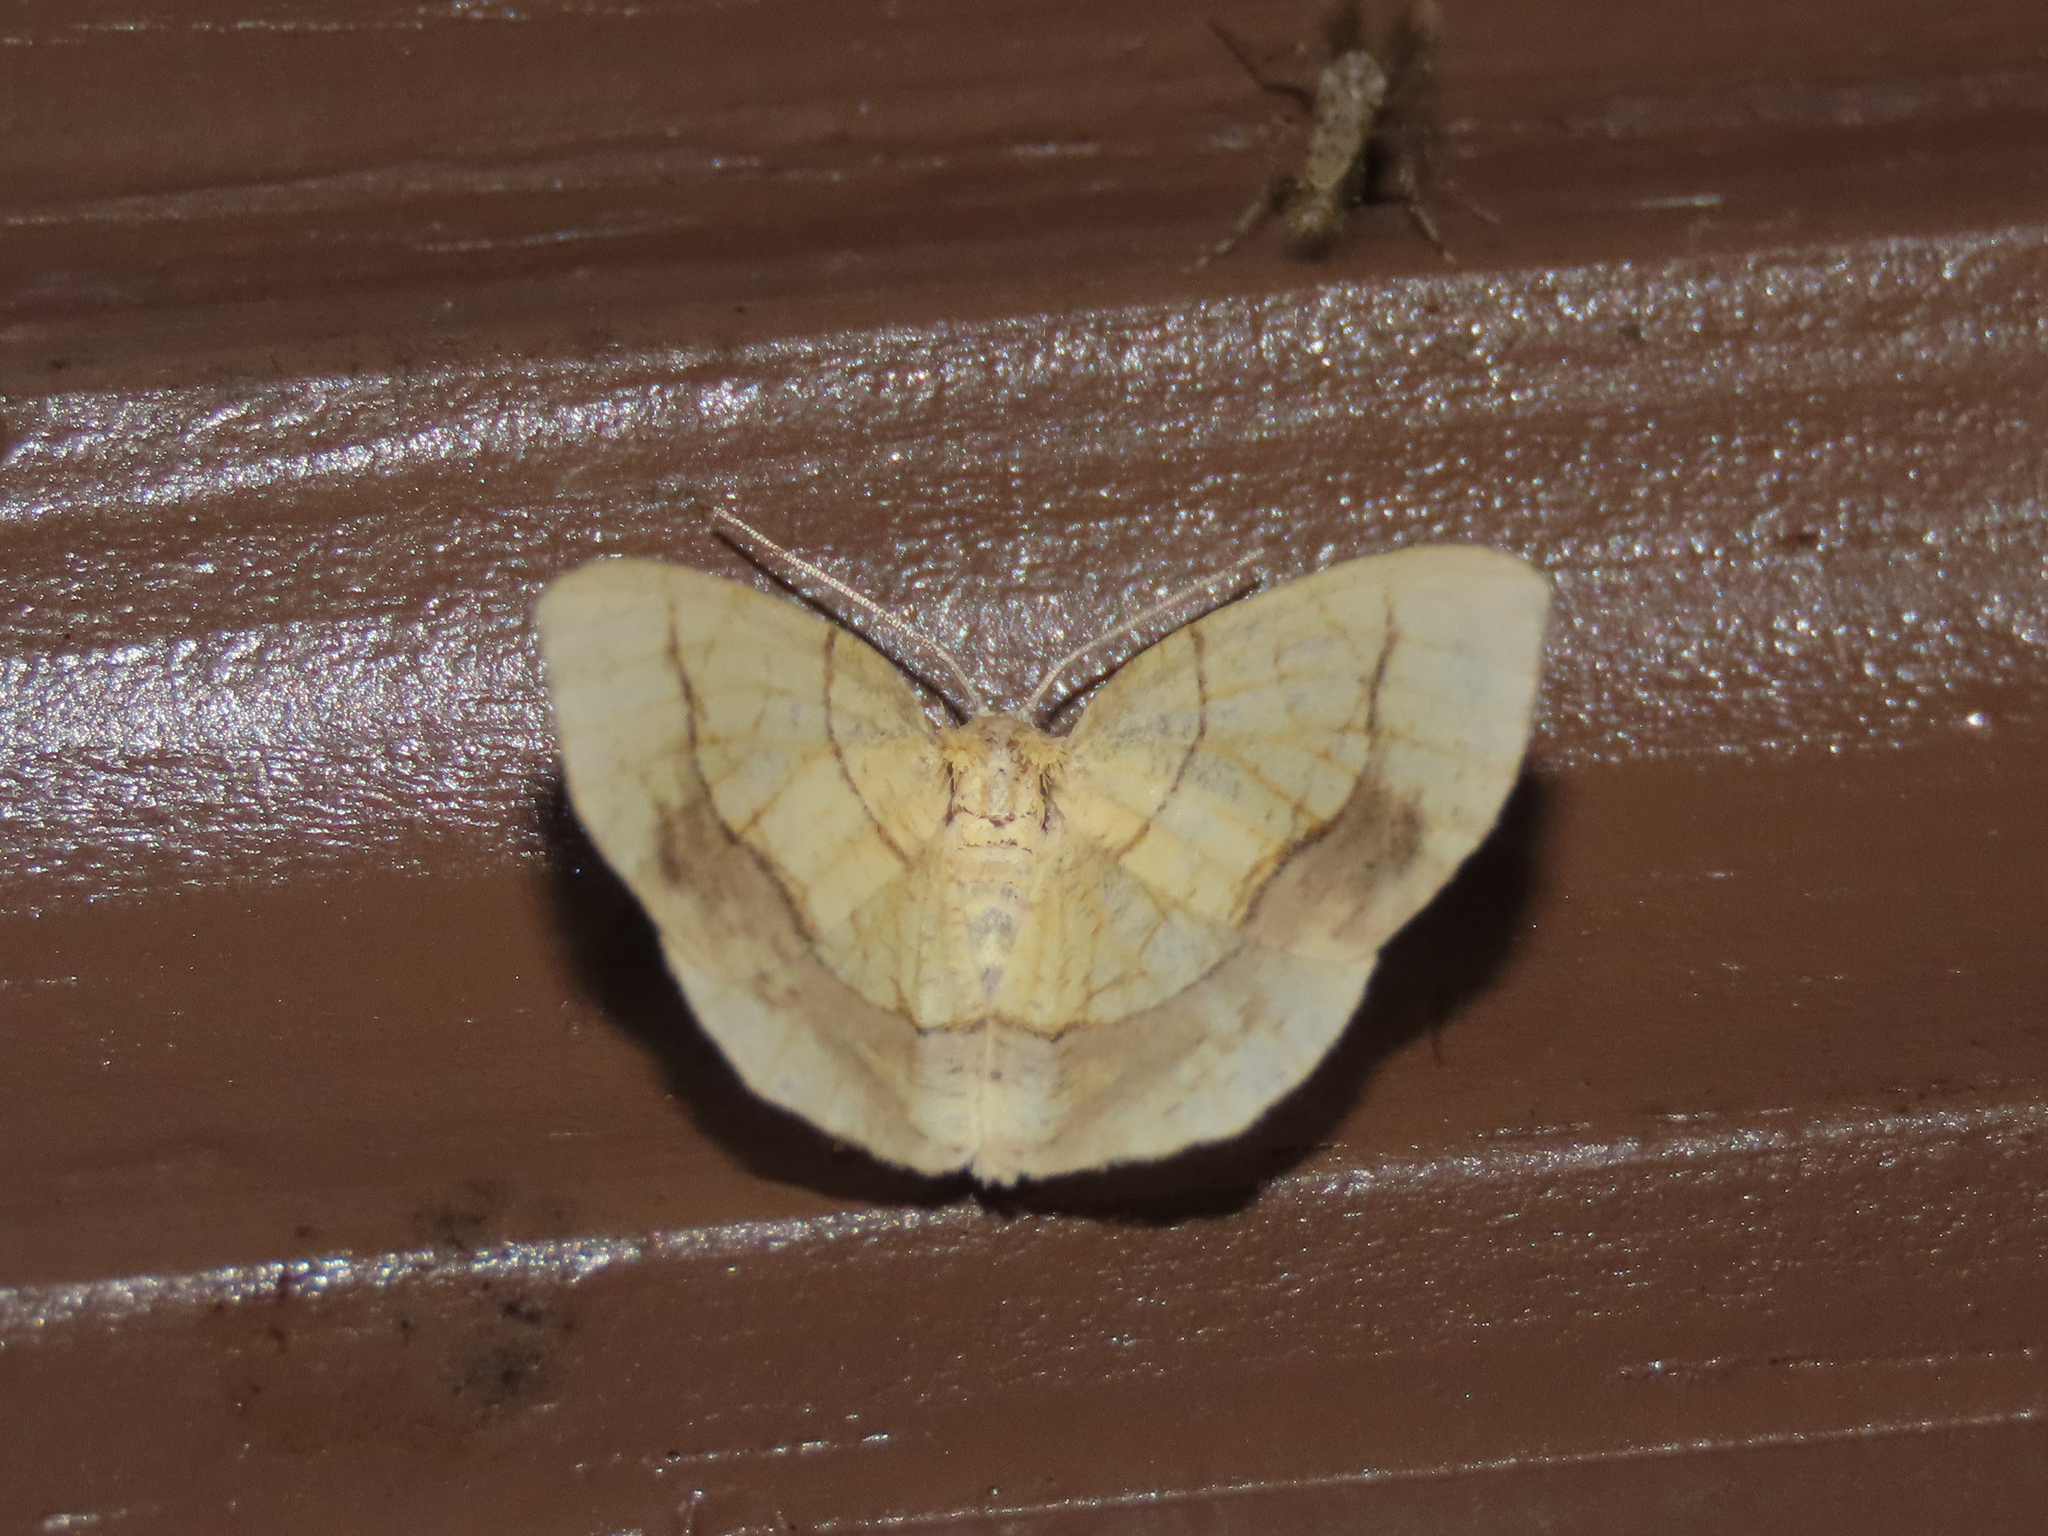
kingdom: Animalia
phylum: Arthropoda
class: Insecta
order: Lepidoptera
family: Geometridae
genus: Nematocampa
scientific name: Nematocampa resistaria
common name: Horned spanworm moth
